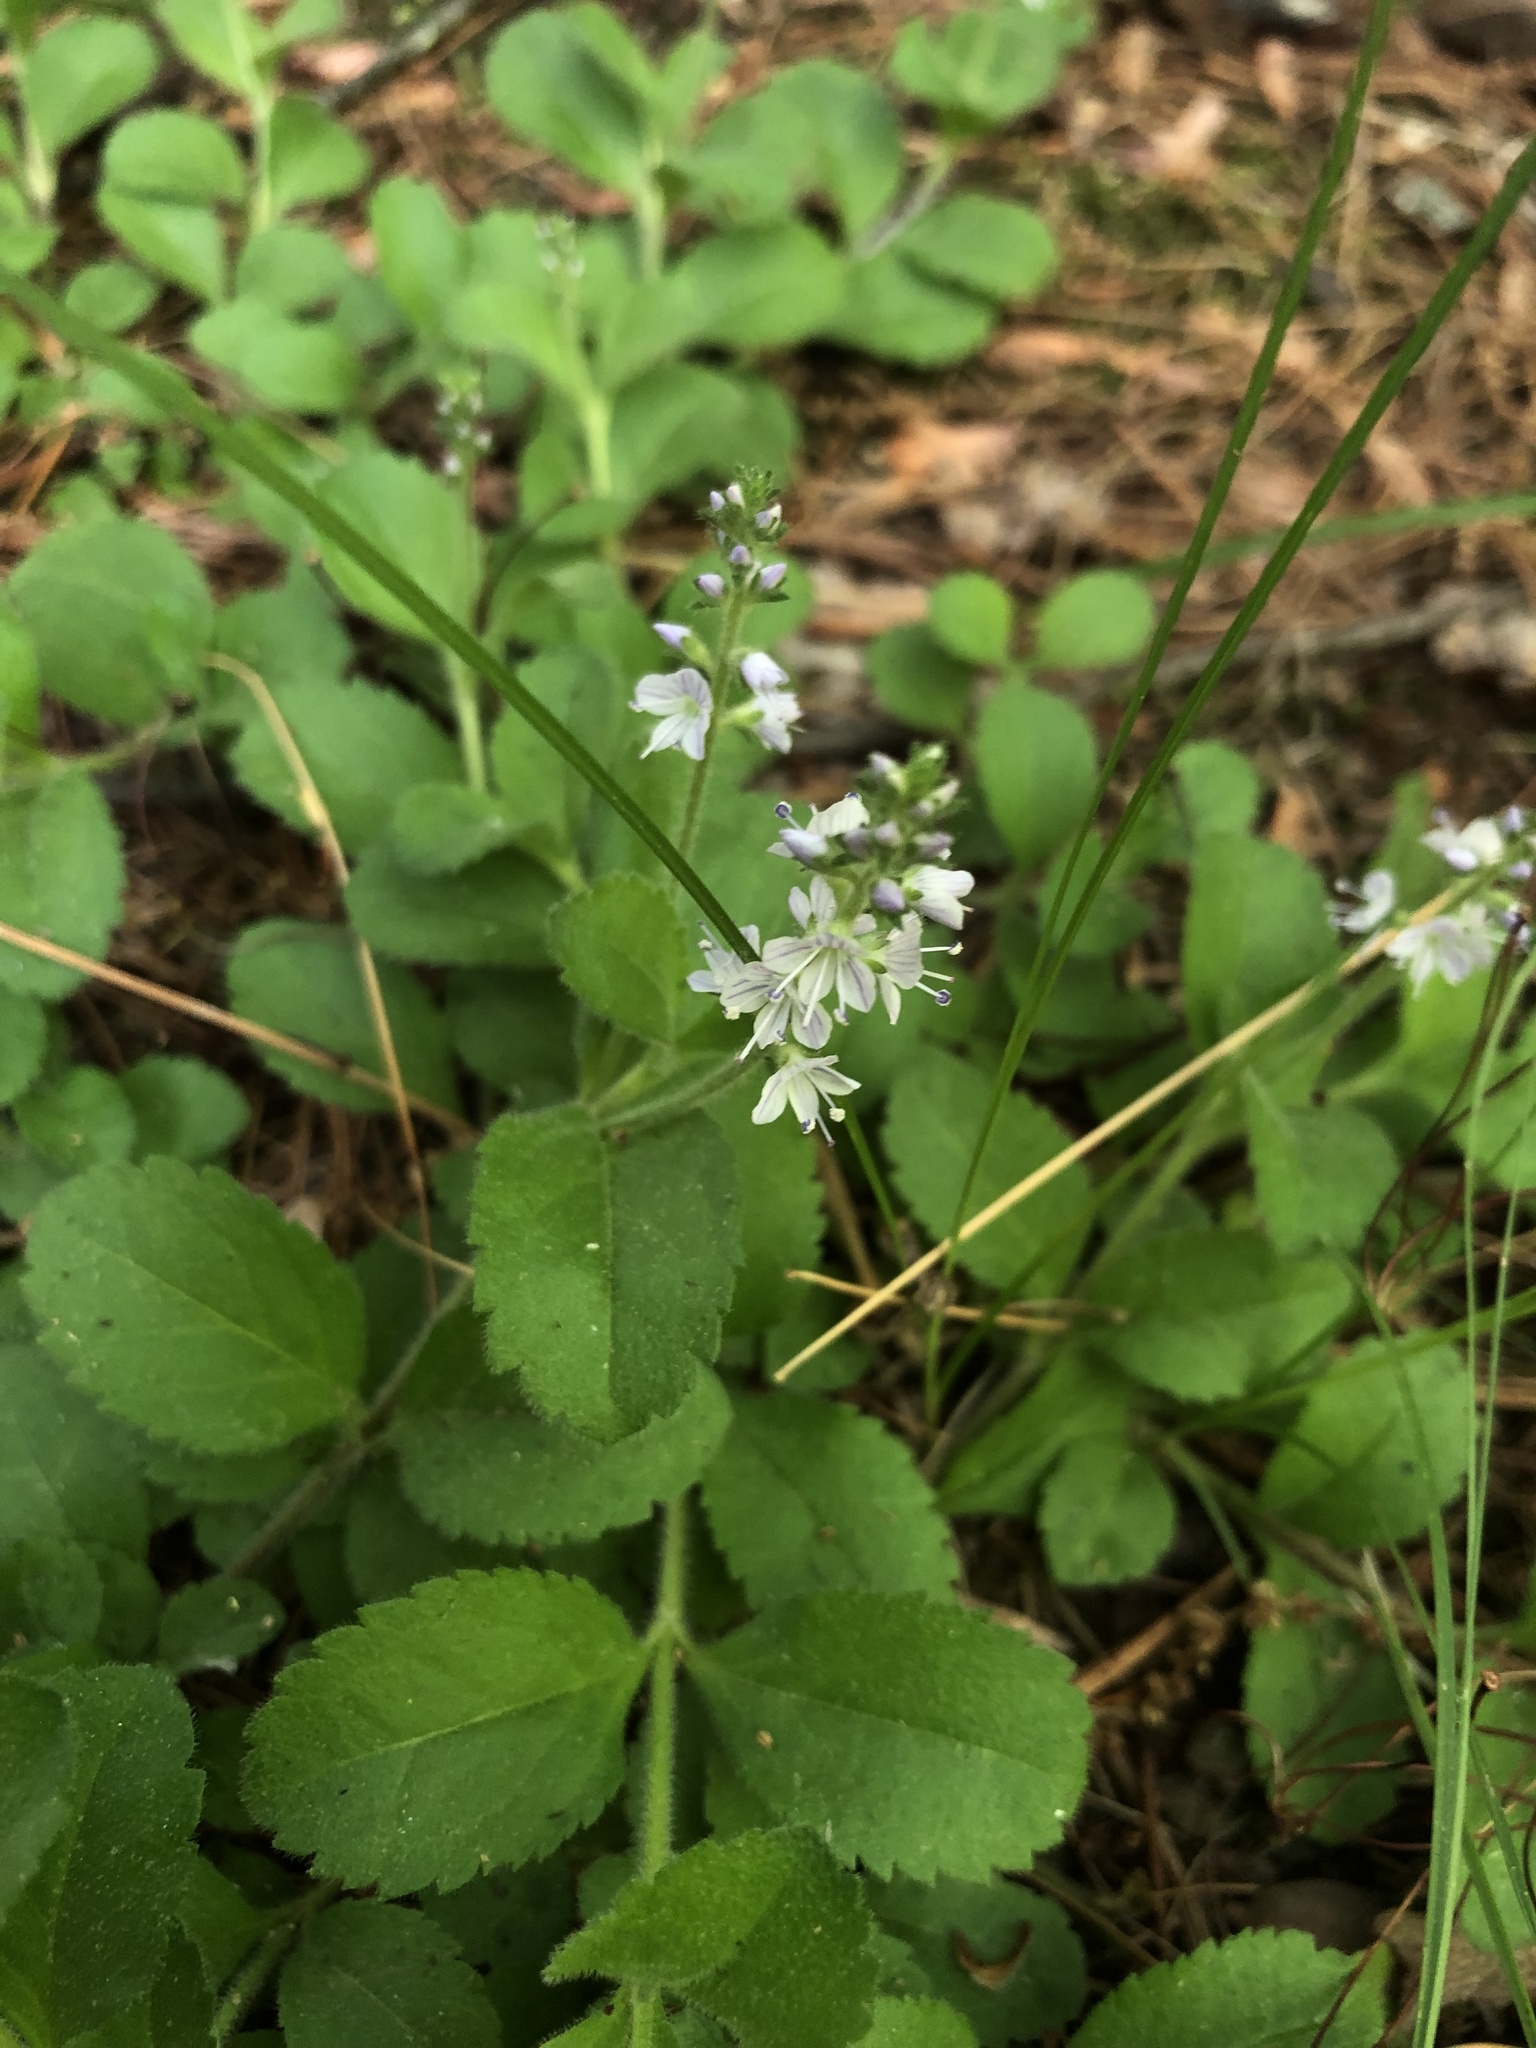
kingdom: Plantae
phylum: Tracheophyta
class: Magnoliopsida
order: Lamiales
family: Plantaginaceae
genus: Veronica
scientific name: Veronica officinalis
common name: Common speedwell
